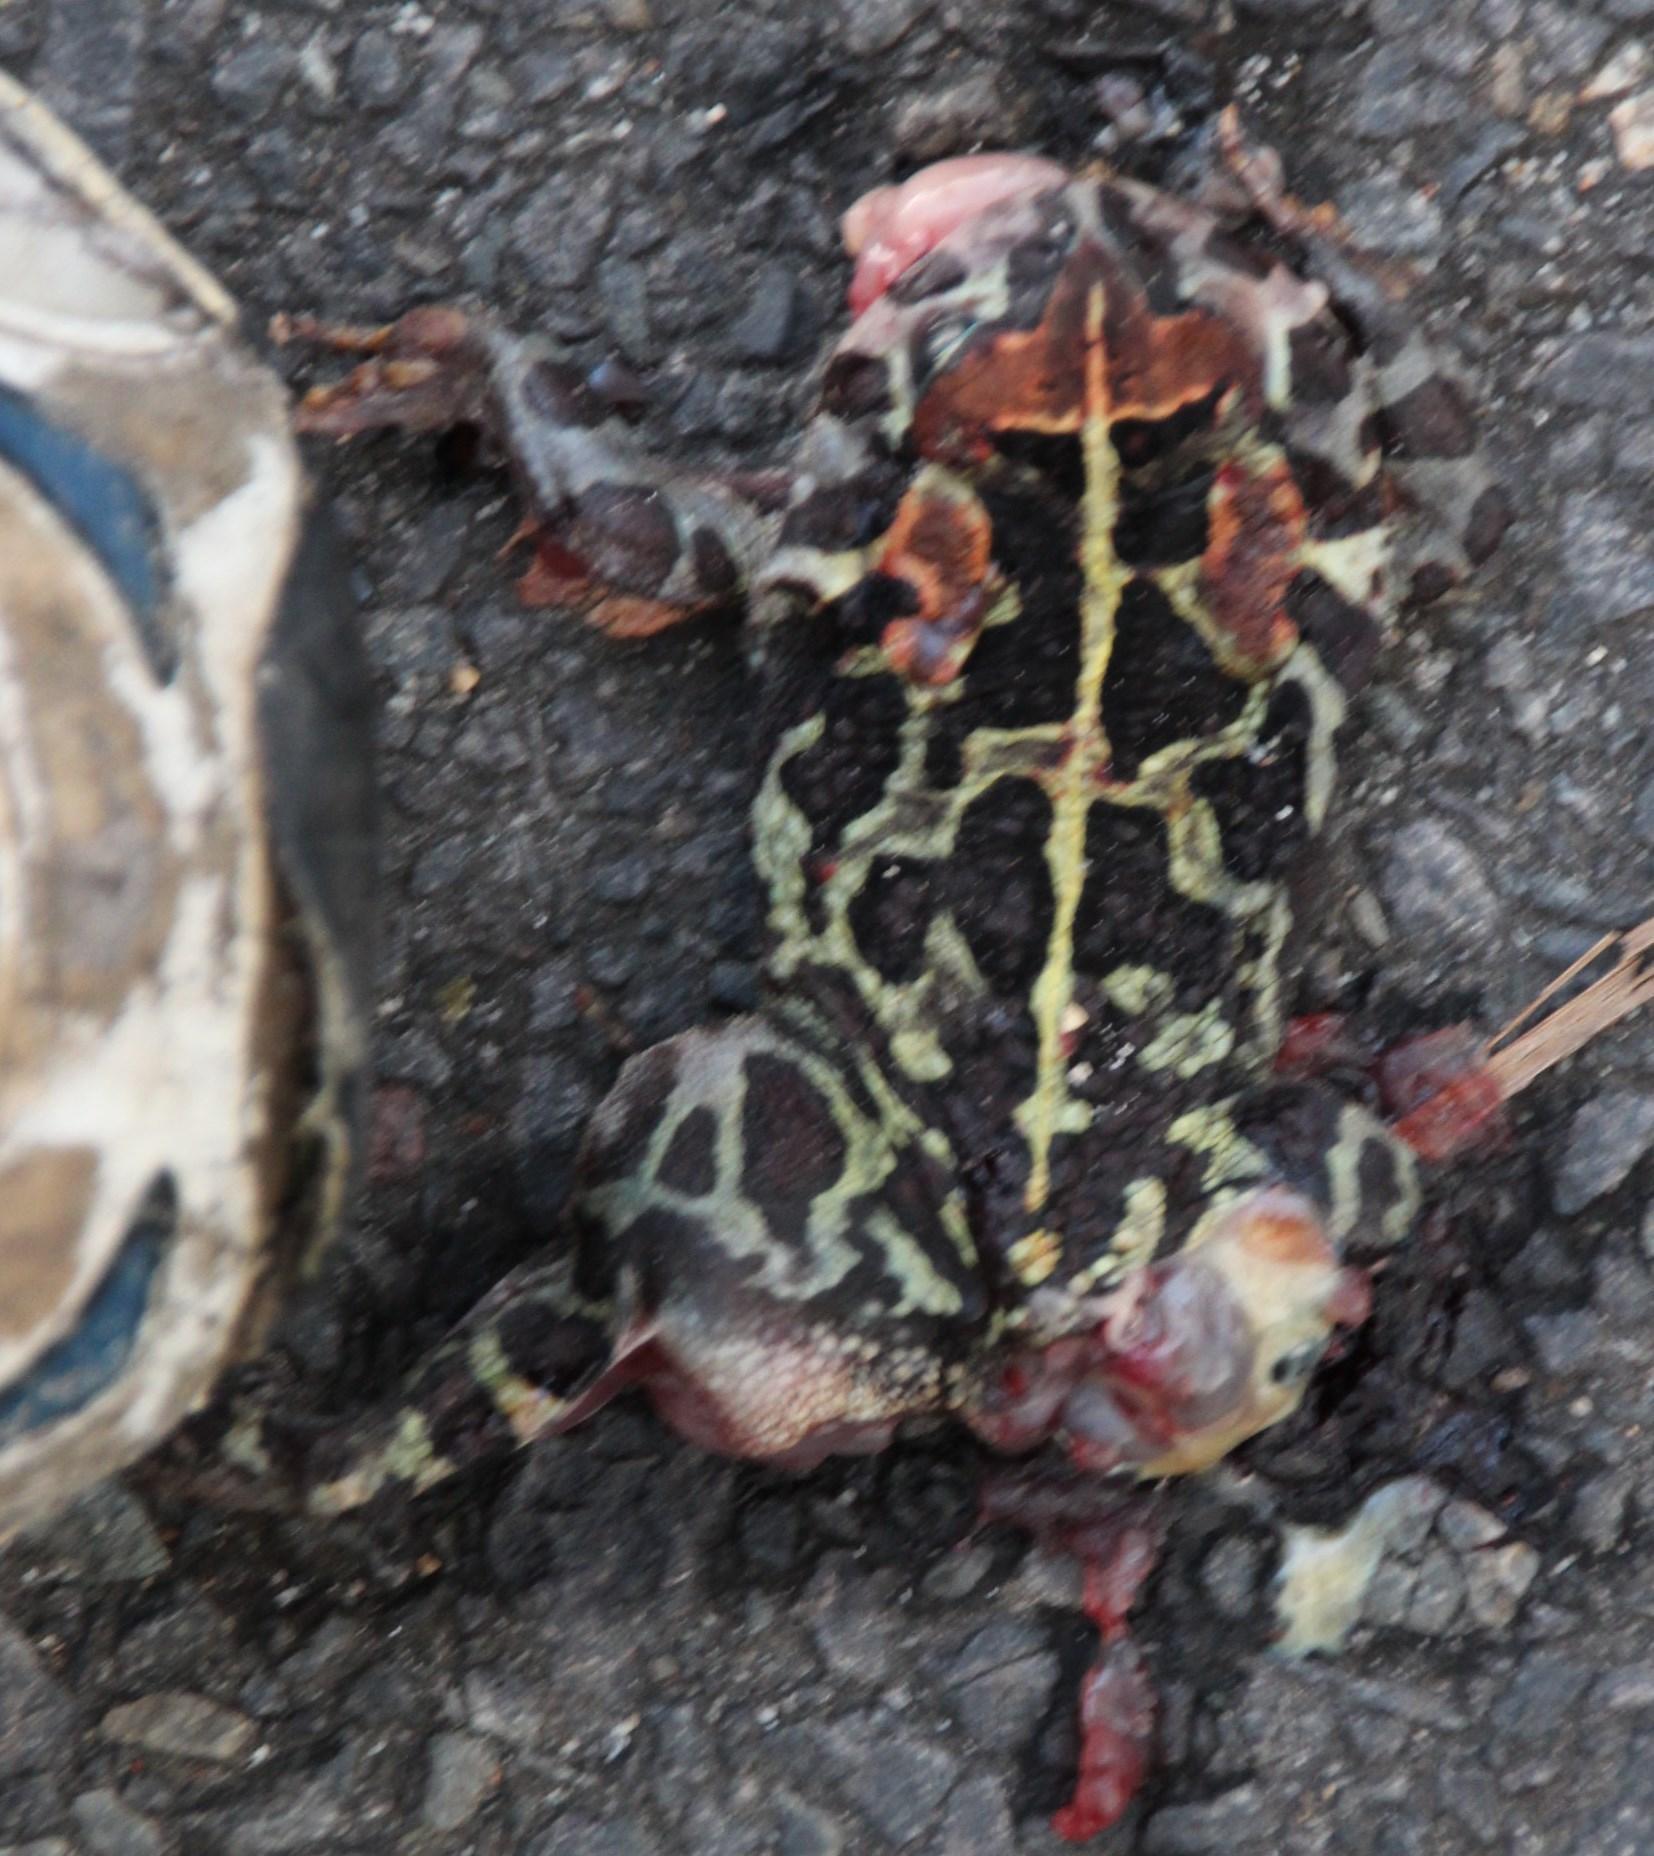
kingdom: Animalia
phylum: Chordata
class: Amphibia
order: Anura
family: Bufonidae
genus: Sclerophrys
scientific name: Sclerophrys pantherina
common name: Panther toad
